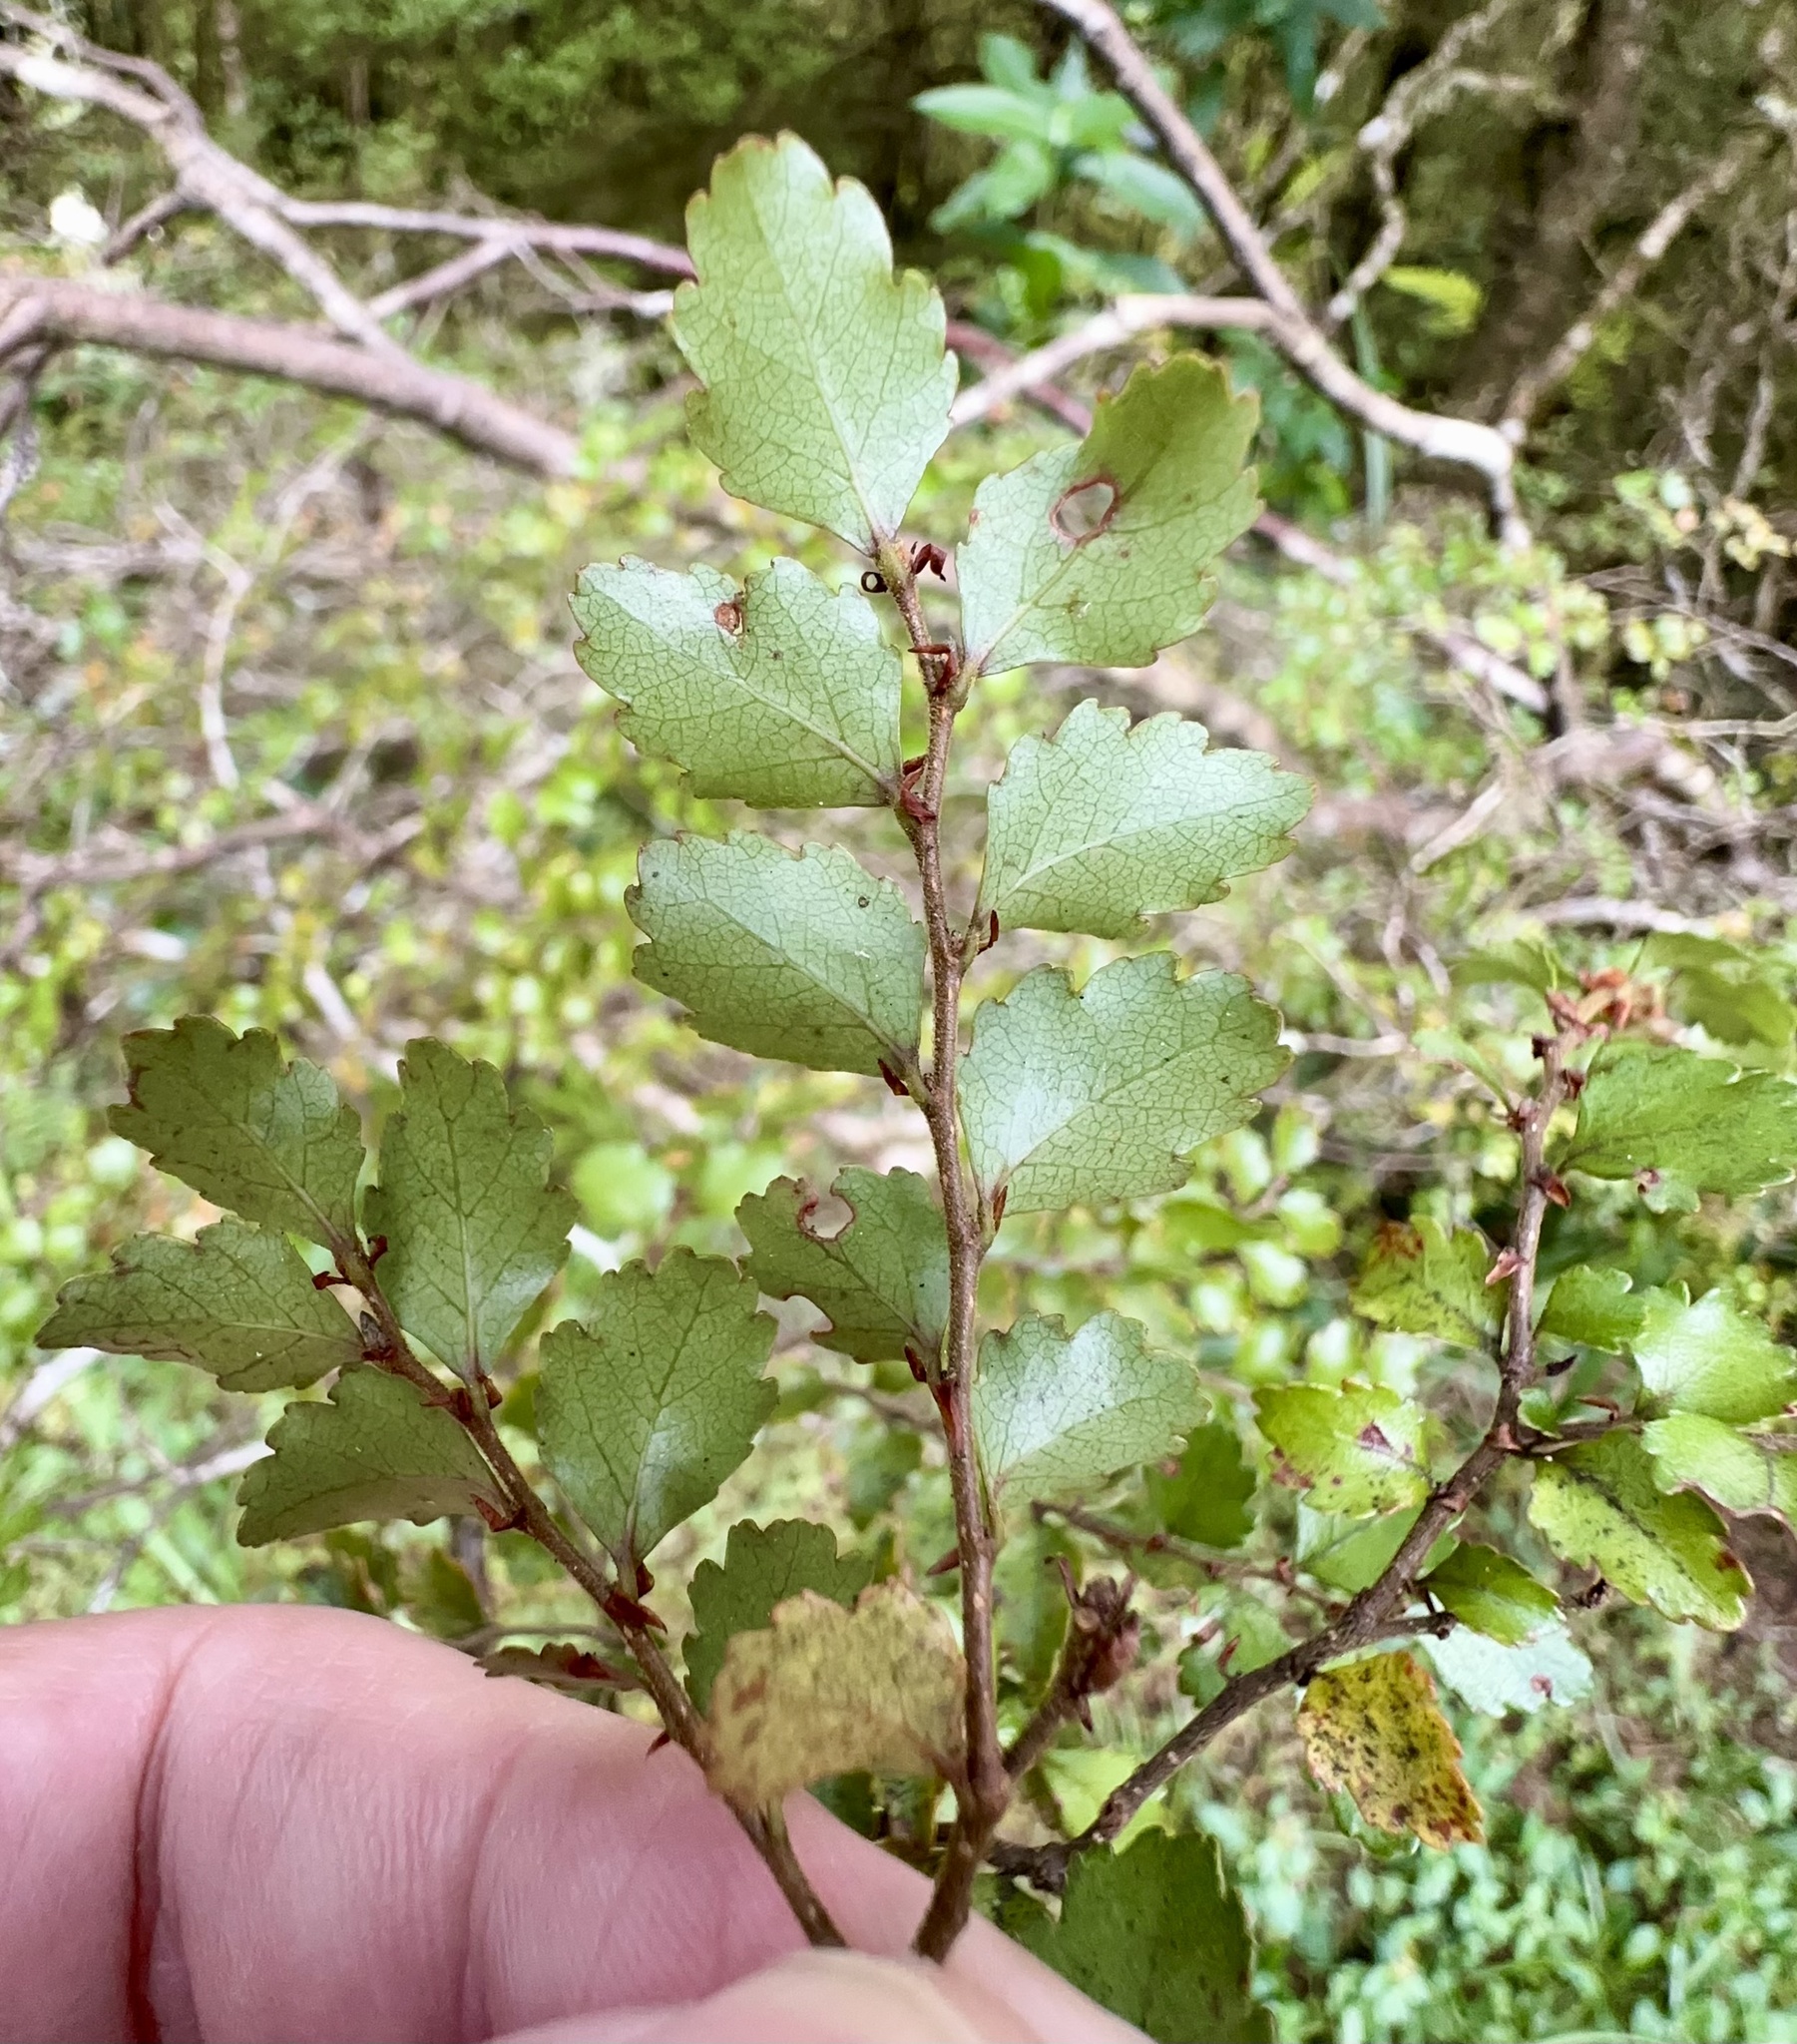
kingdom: Plantae
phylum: Tracheophyta
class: Magnoliopsida
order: Fagales
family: Nothofagaceae
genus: Nothofagus
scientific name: Nothofagus menziesii
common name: Silver beech
